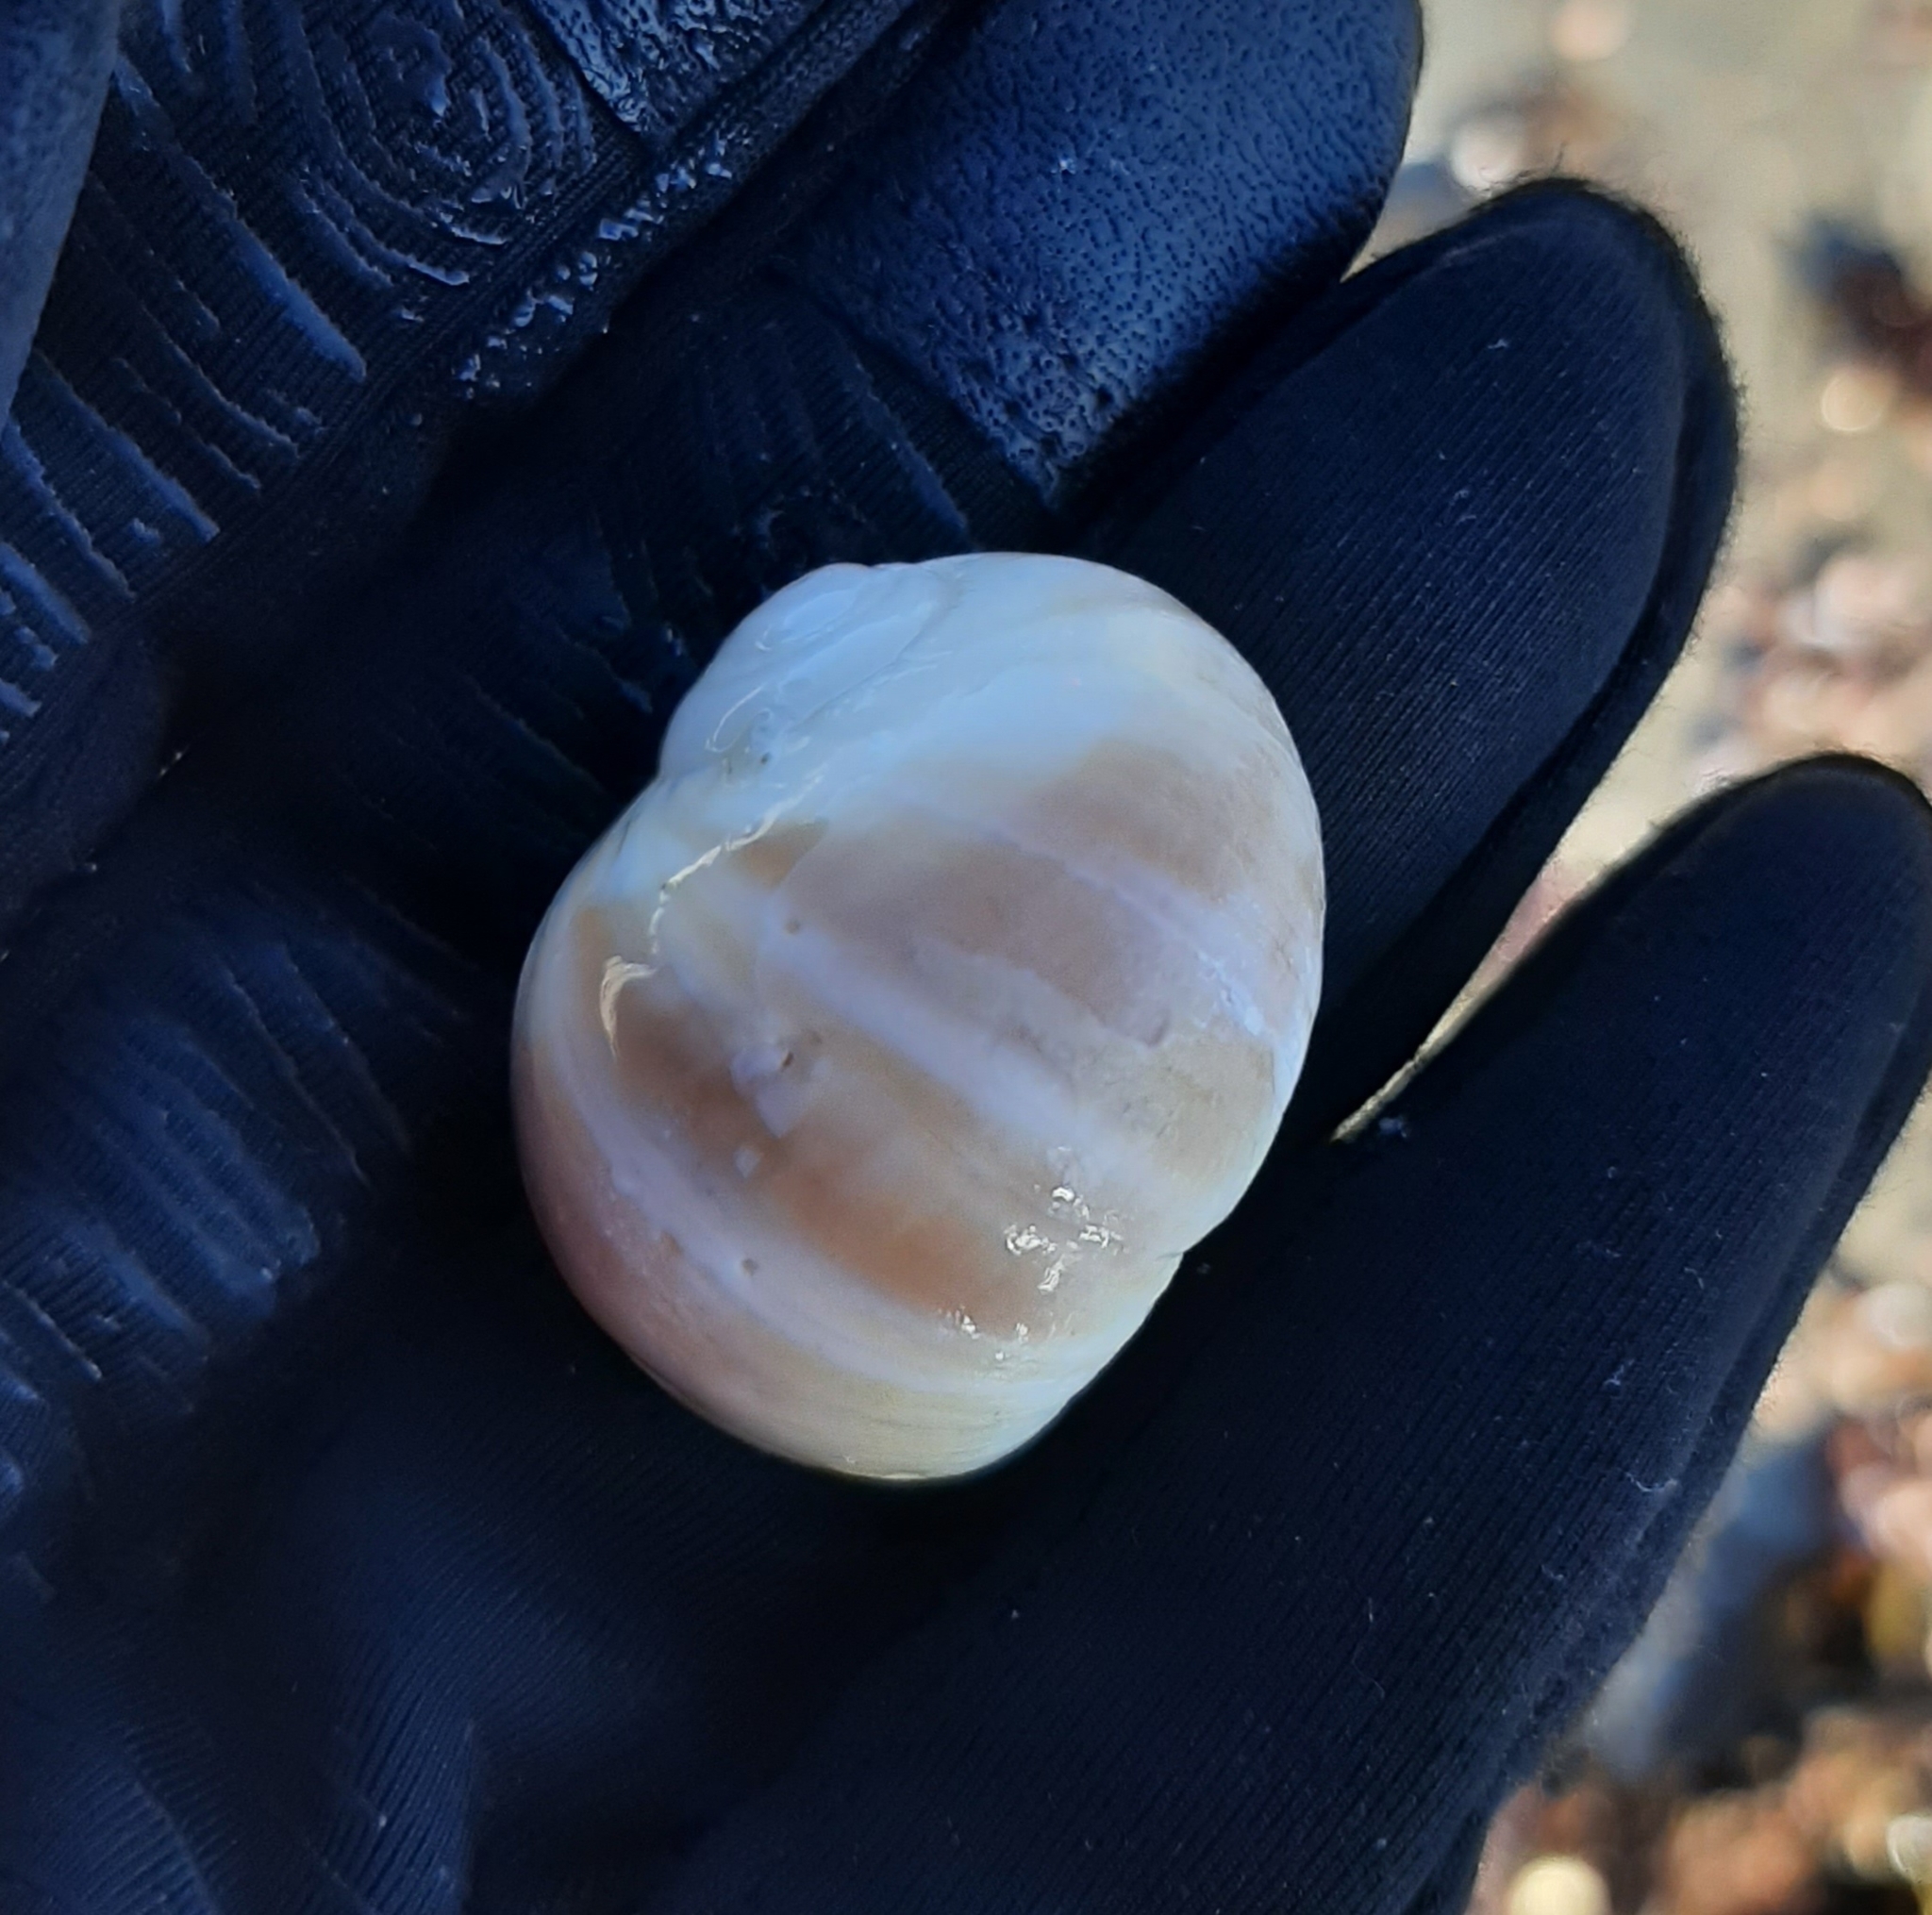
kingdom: Animalia
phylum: Mollusca
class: Gastropoda
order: Littorinimorpha
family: Naticidae
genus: Euspira
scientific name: Euspira heros
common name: Common northern moonsnail
